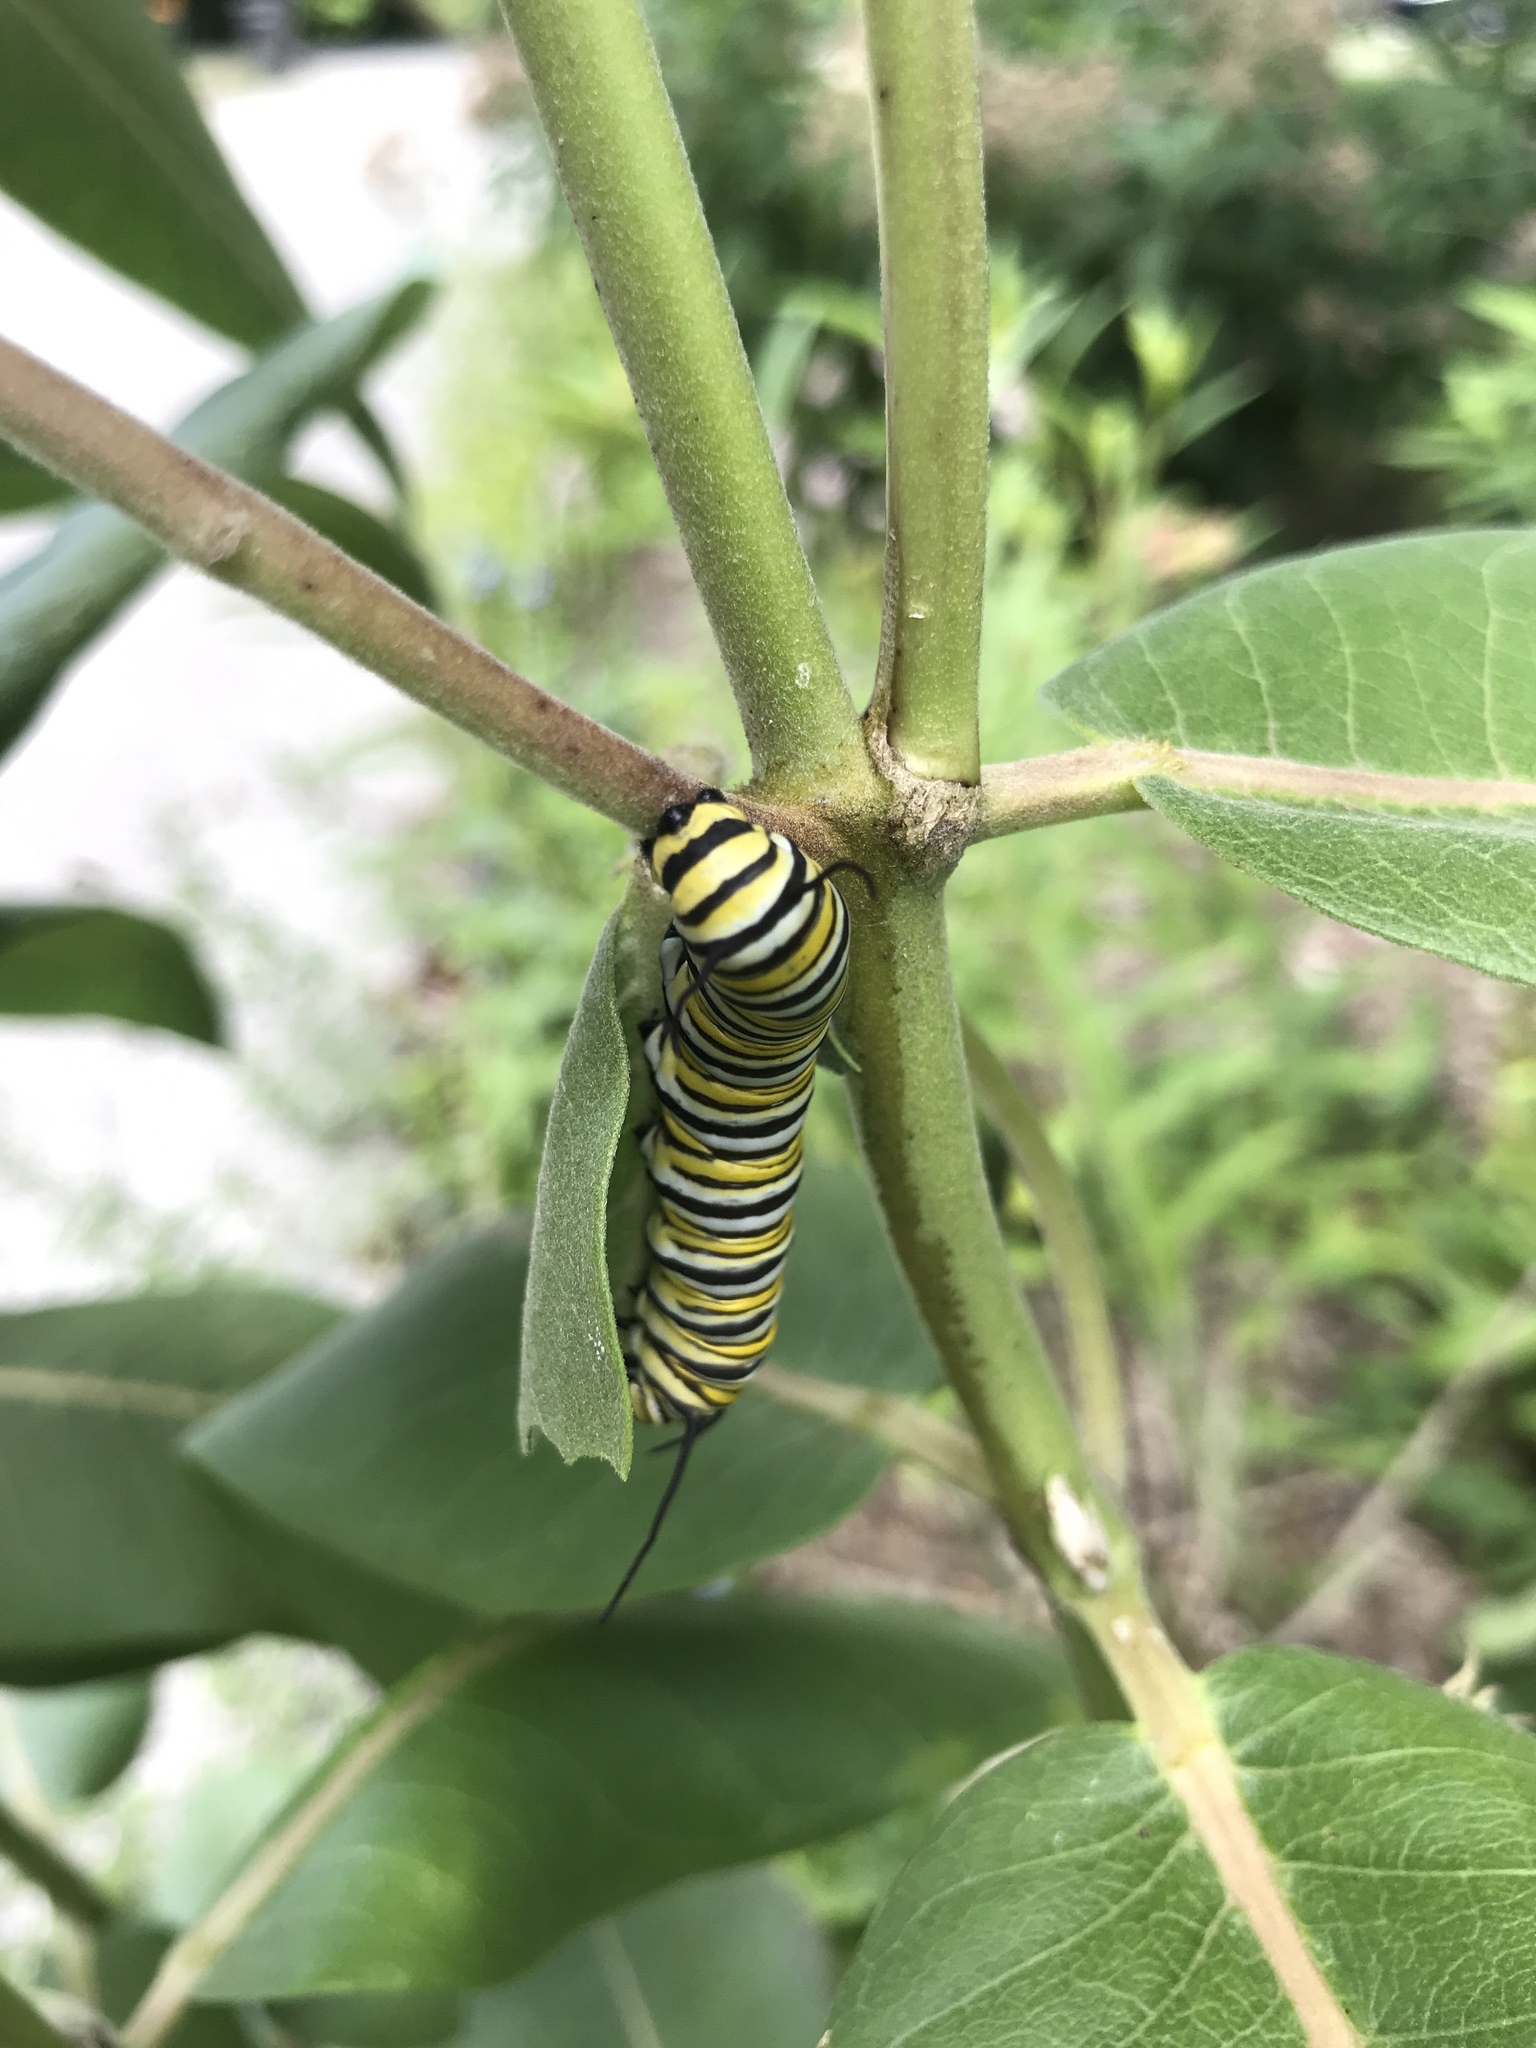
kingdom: Animalia
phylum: Arthropoda
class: Insecta
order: Lepidoptera
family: Nymphalidae
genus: Danaus
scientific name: Danaus plexippus
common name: Monarch
